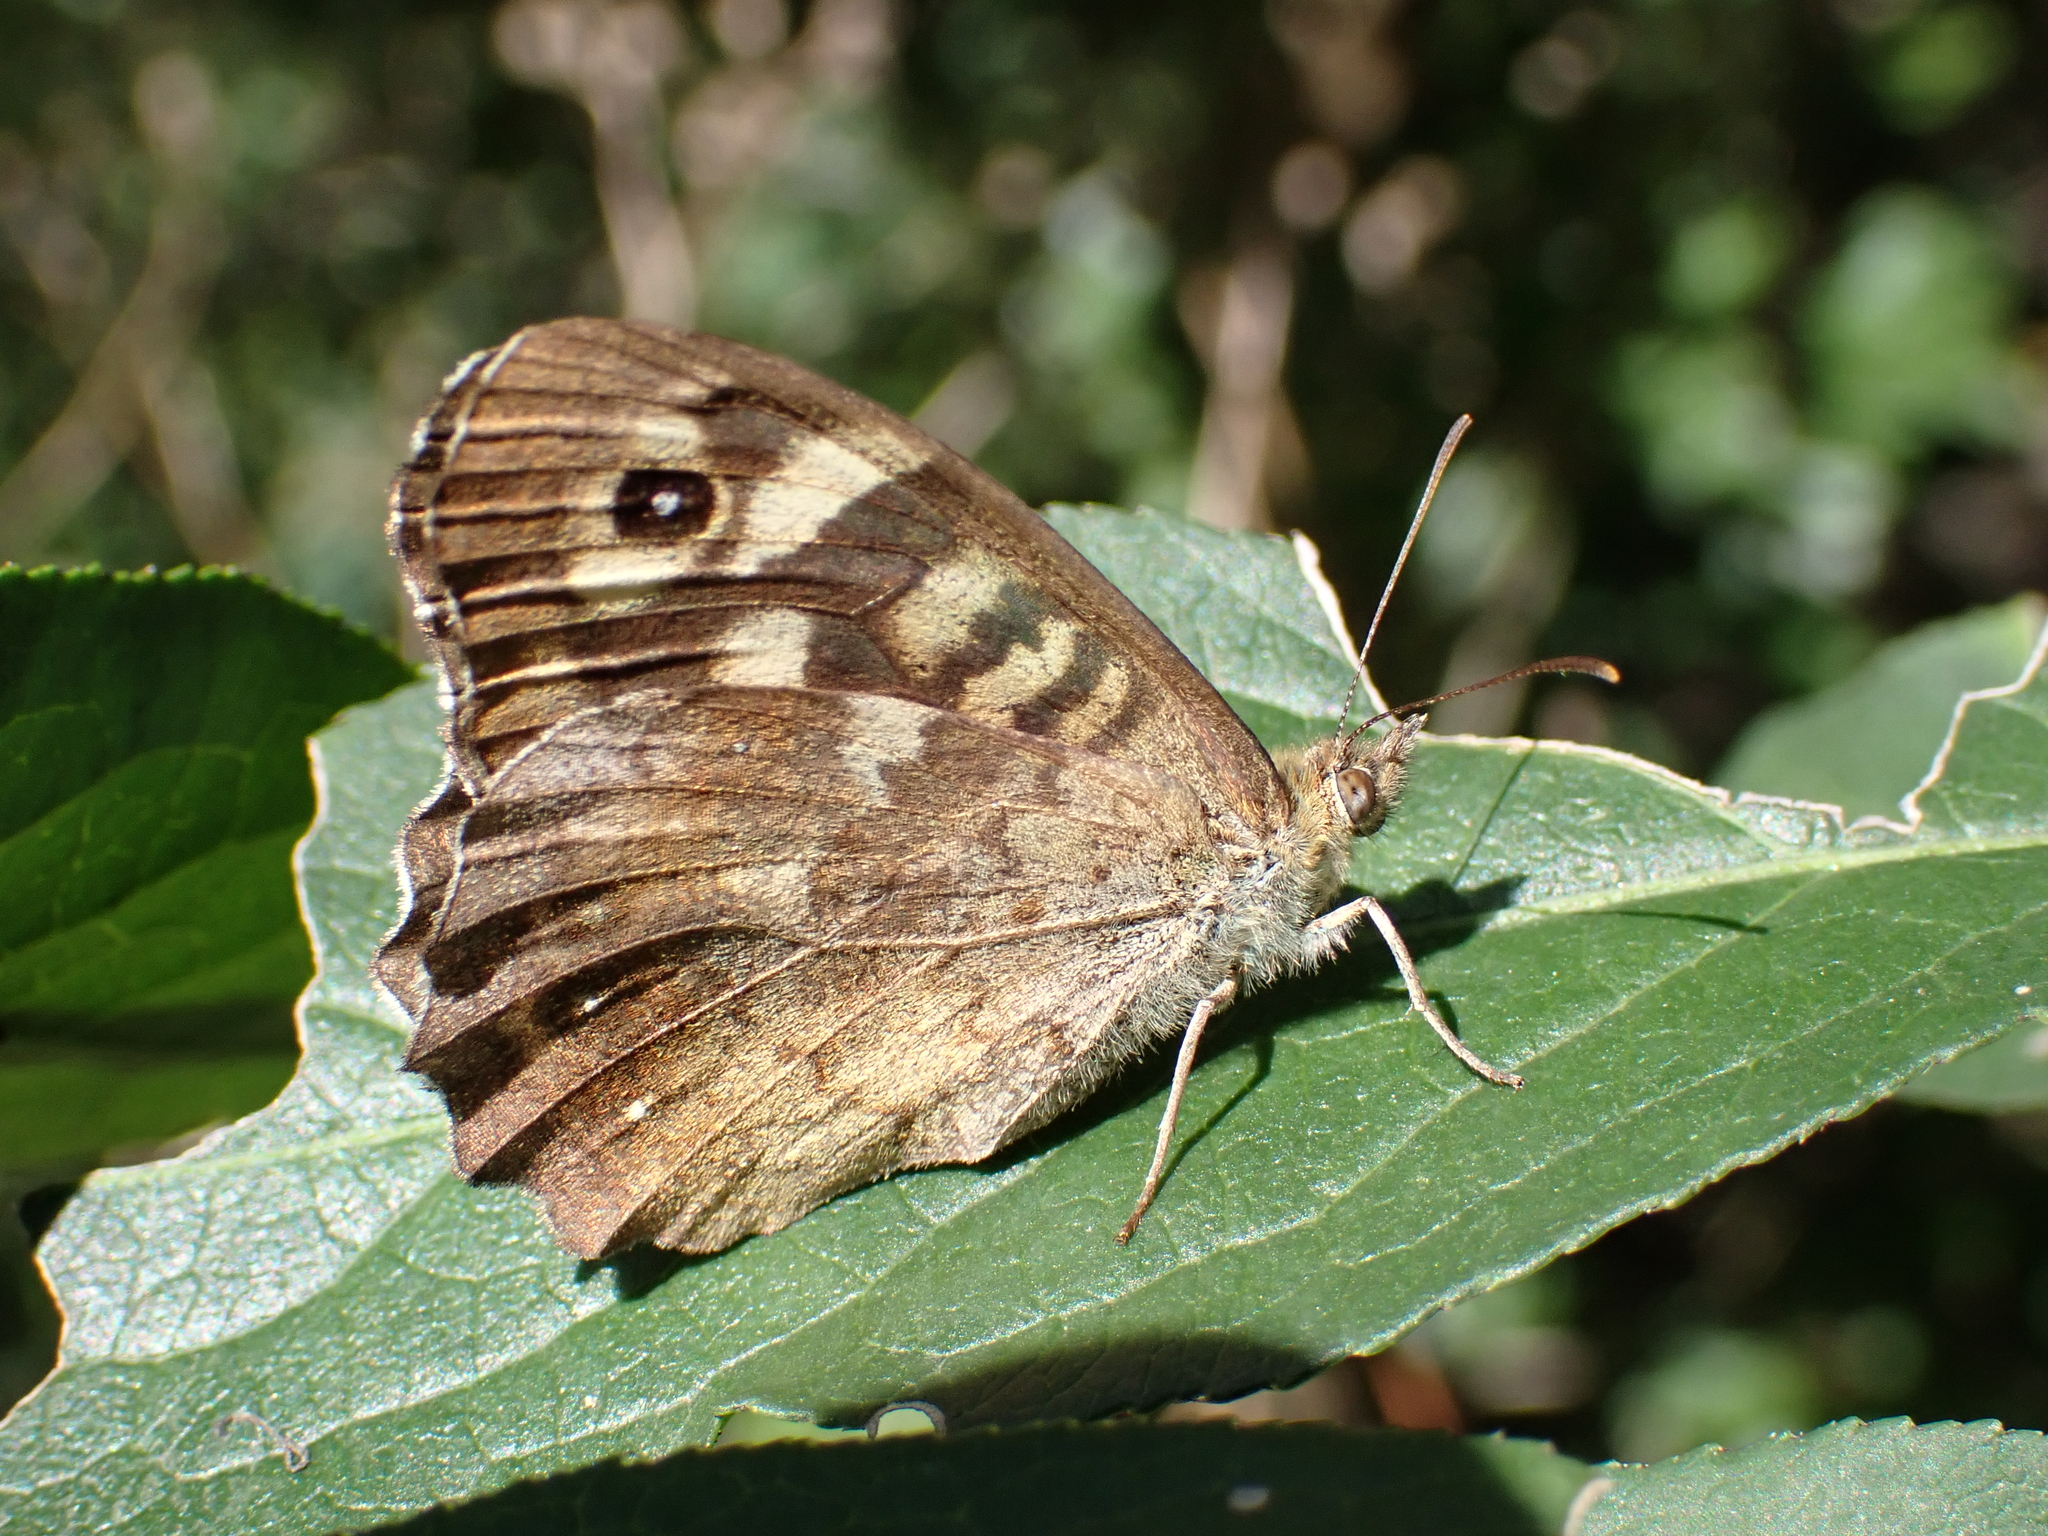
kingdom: Animalia
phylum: Arthropoda
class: Insecta
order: Lepidoptera
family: Nymphalidae
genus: Pararge
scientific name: Pararge aegeria
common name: Speckled wood
